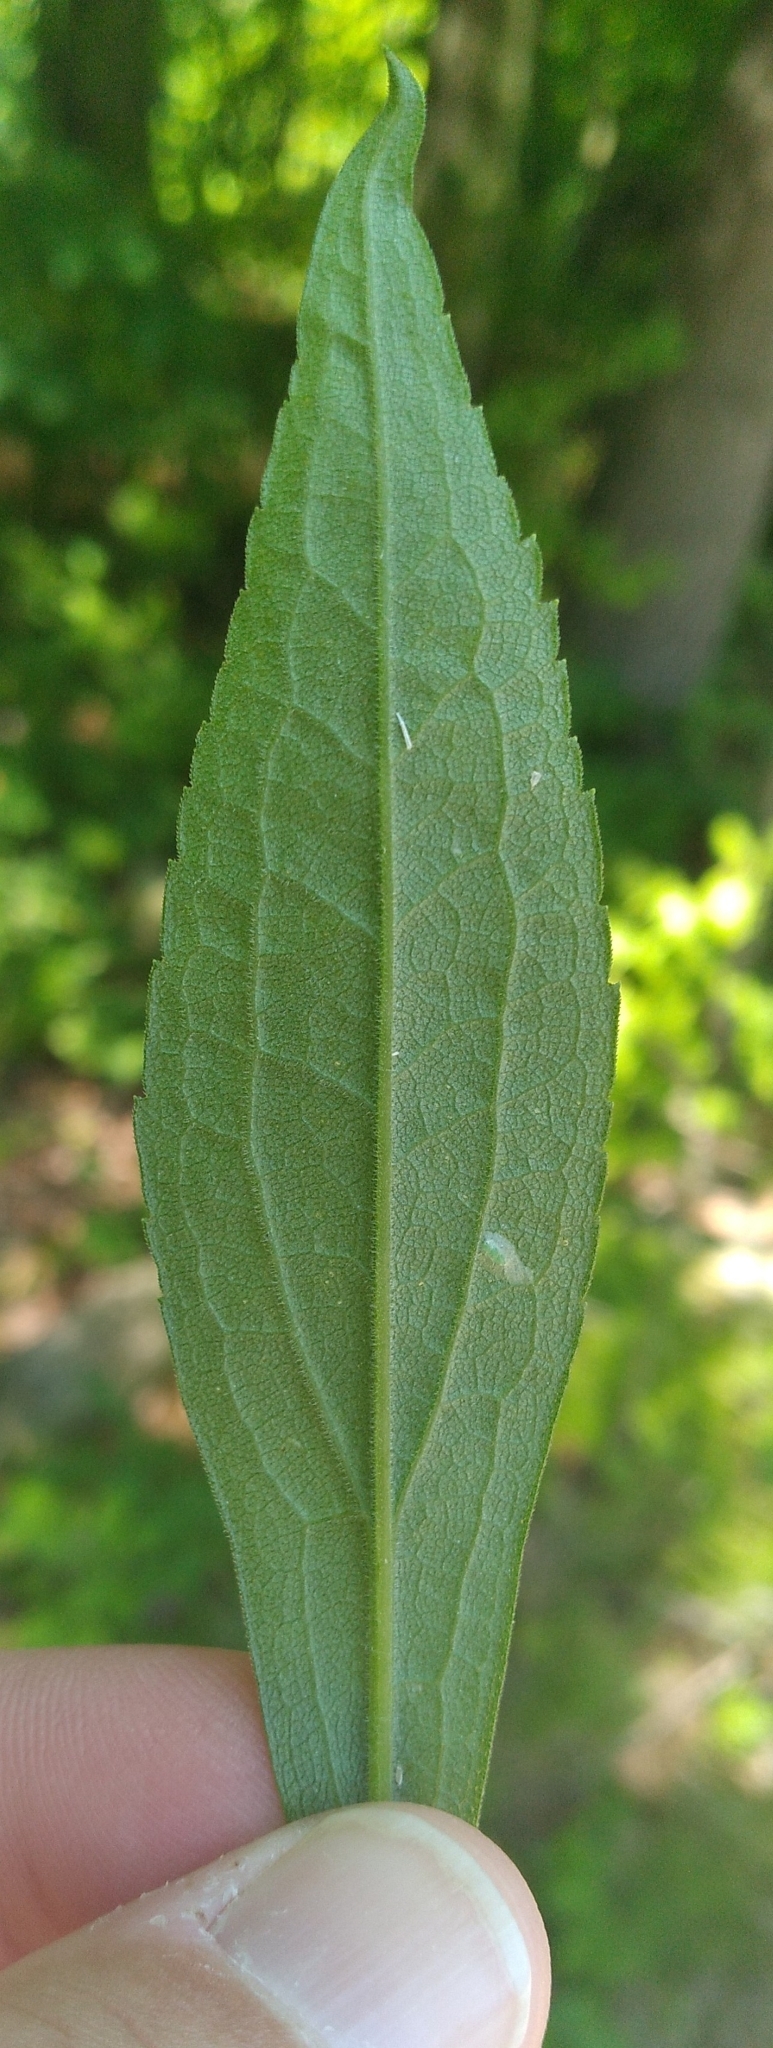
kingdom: Animalia
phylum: Arthropoda
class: Insecta
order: Diptera
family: Agromyzidae
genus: Ophiomyia
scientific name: Ophiomyia maura
